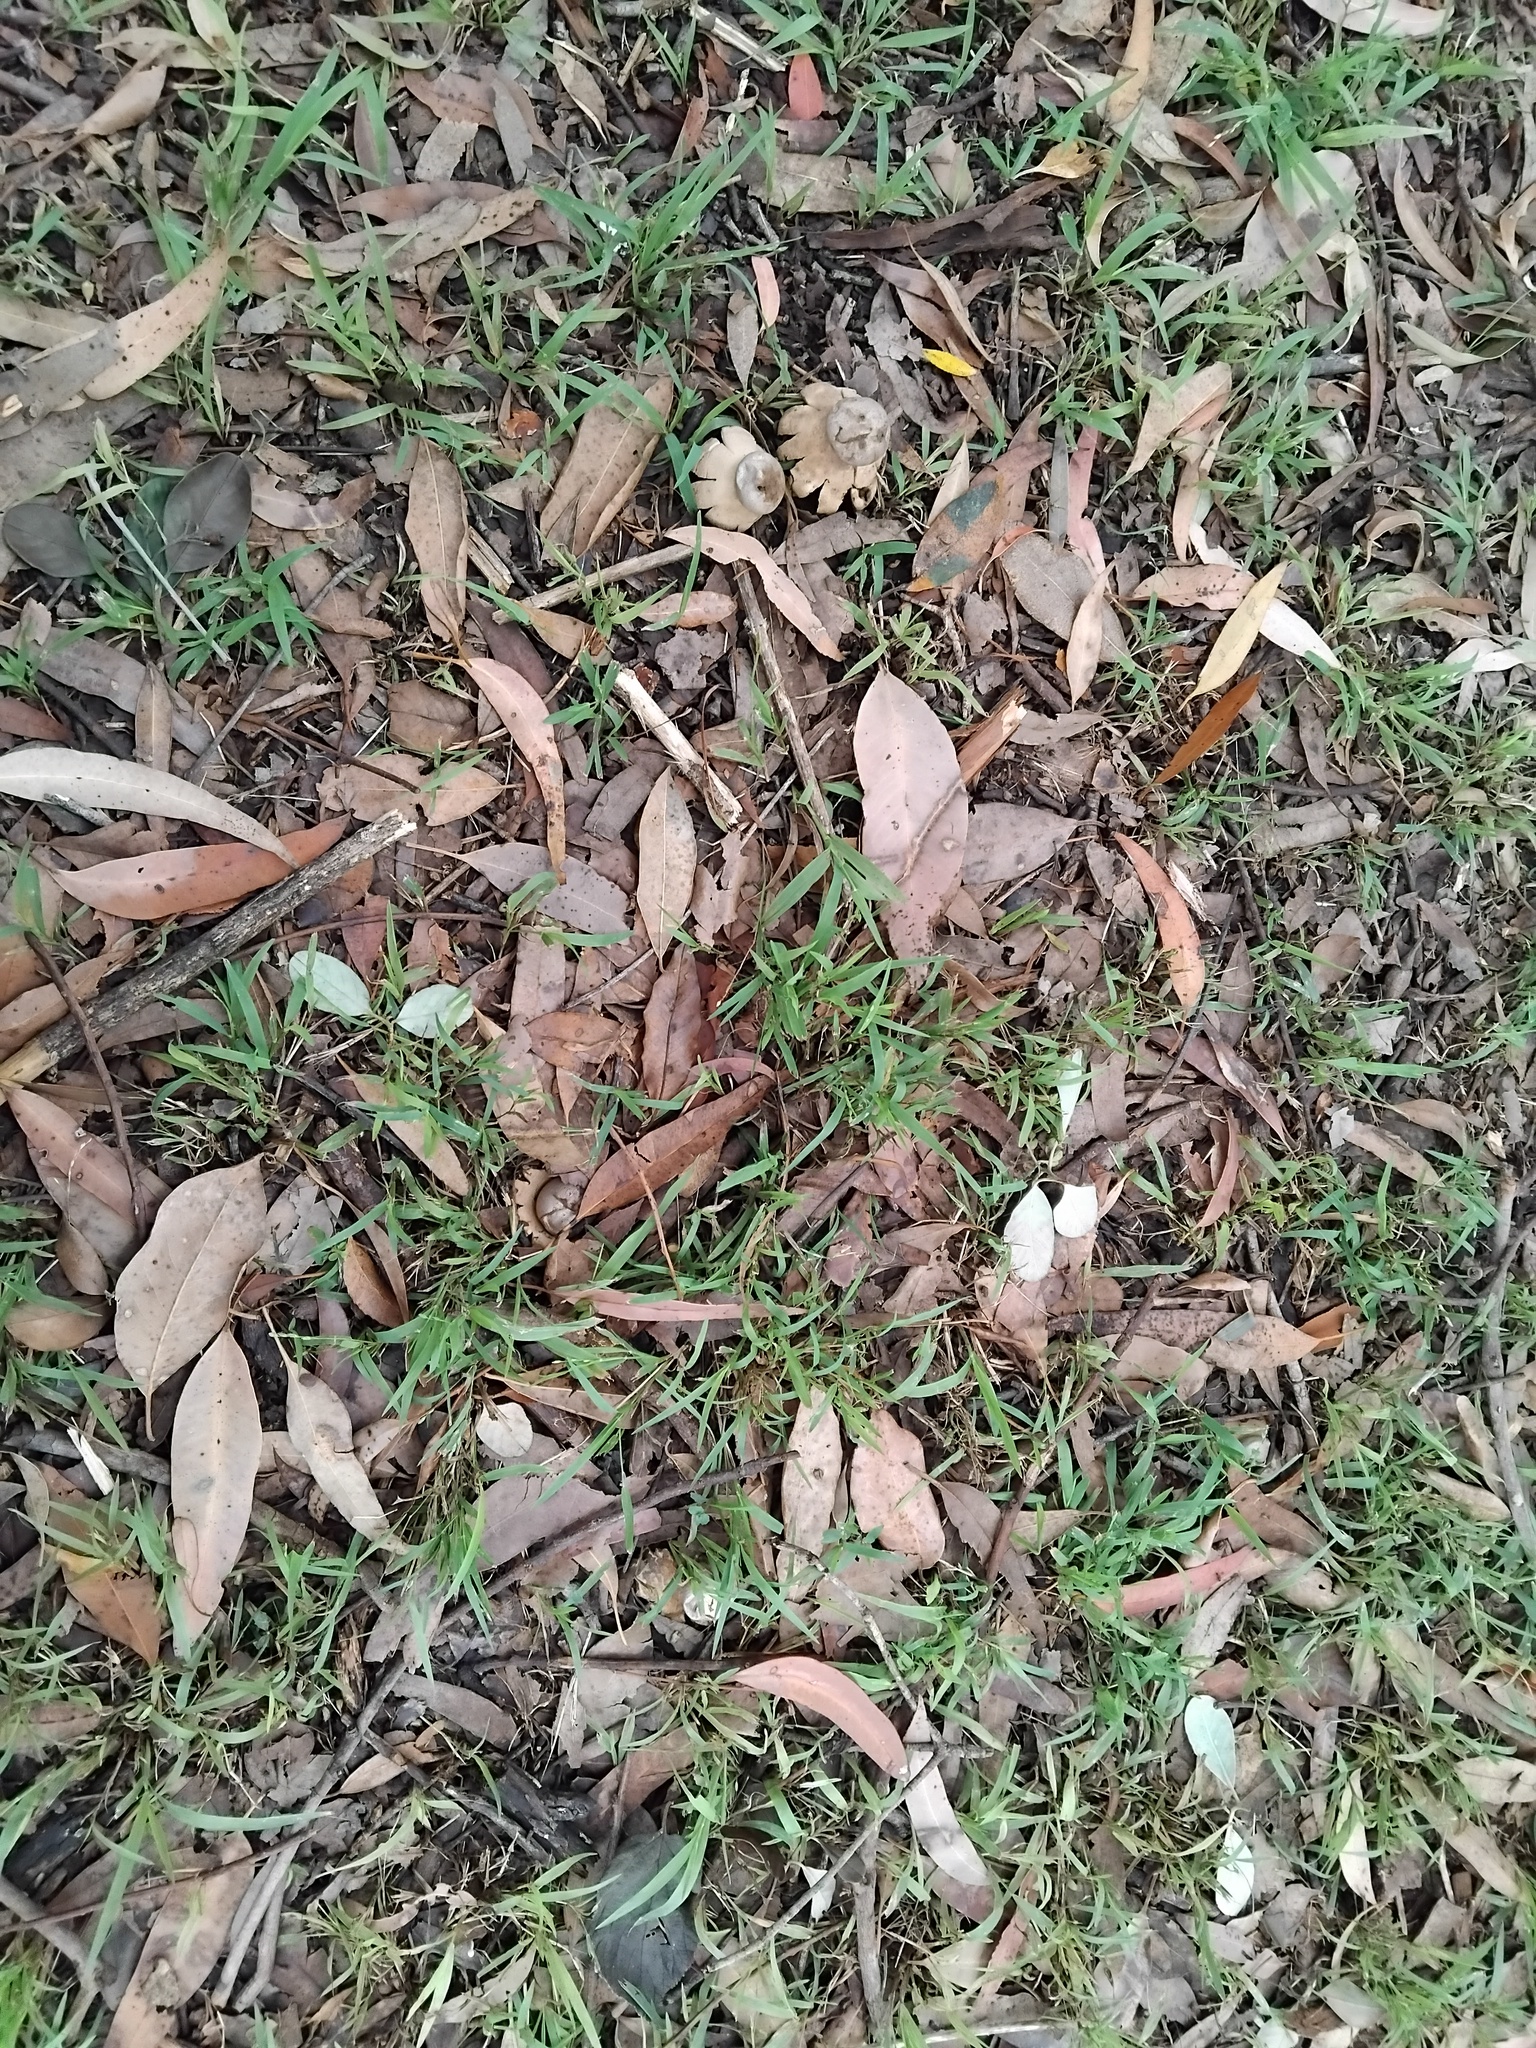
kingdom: Fungi
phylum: Basidiomycota
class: Agaricomycetes
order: Geastrales
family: Geastraceae
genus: Myriostoma
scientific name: Myriostoma australianum
